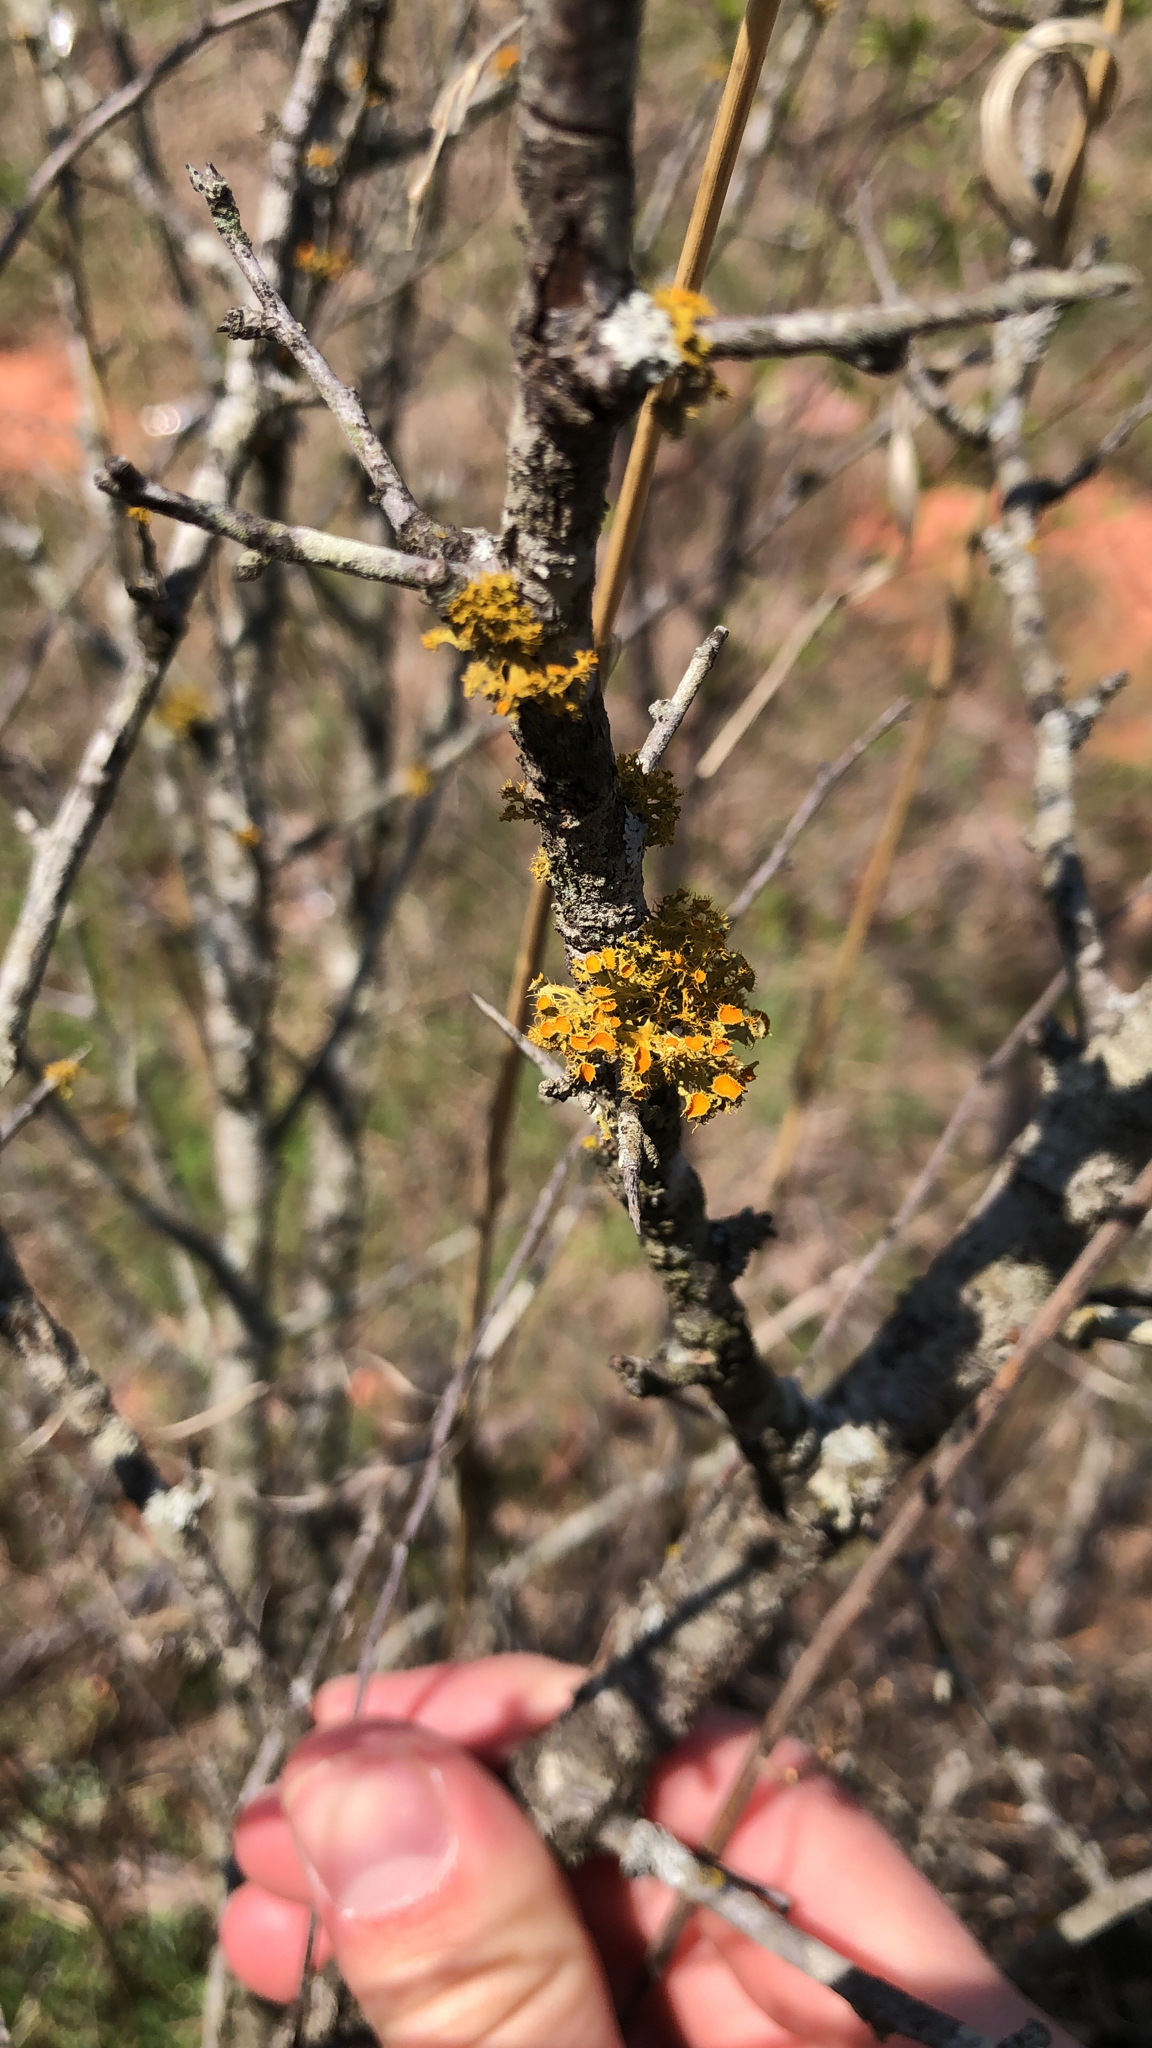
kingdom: Fungi
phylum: Ascomycota
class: Lecanoromycetes
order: Teloschistales
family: Teloschistaceae
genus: Niorma
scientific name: Niorma chrysophthalma
